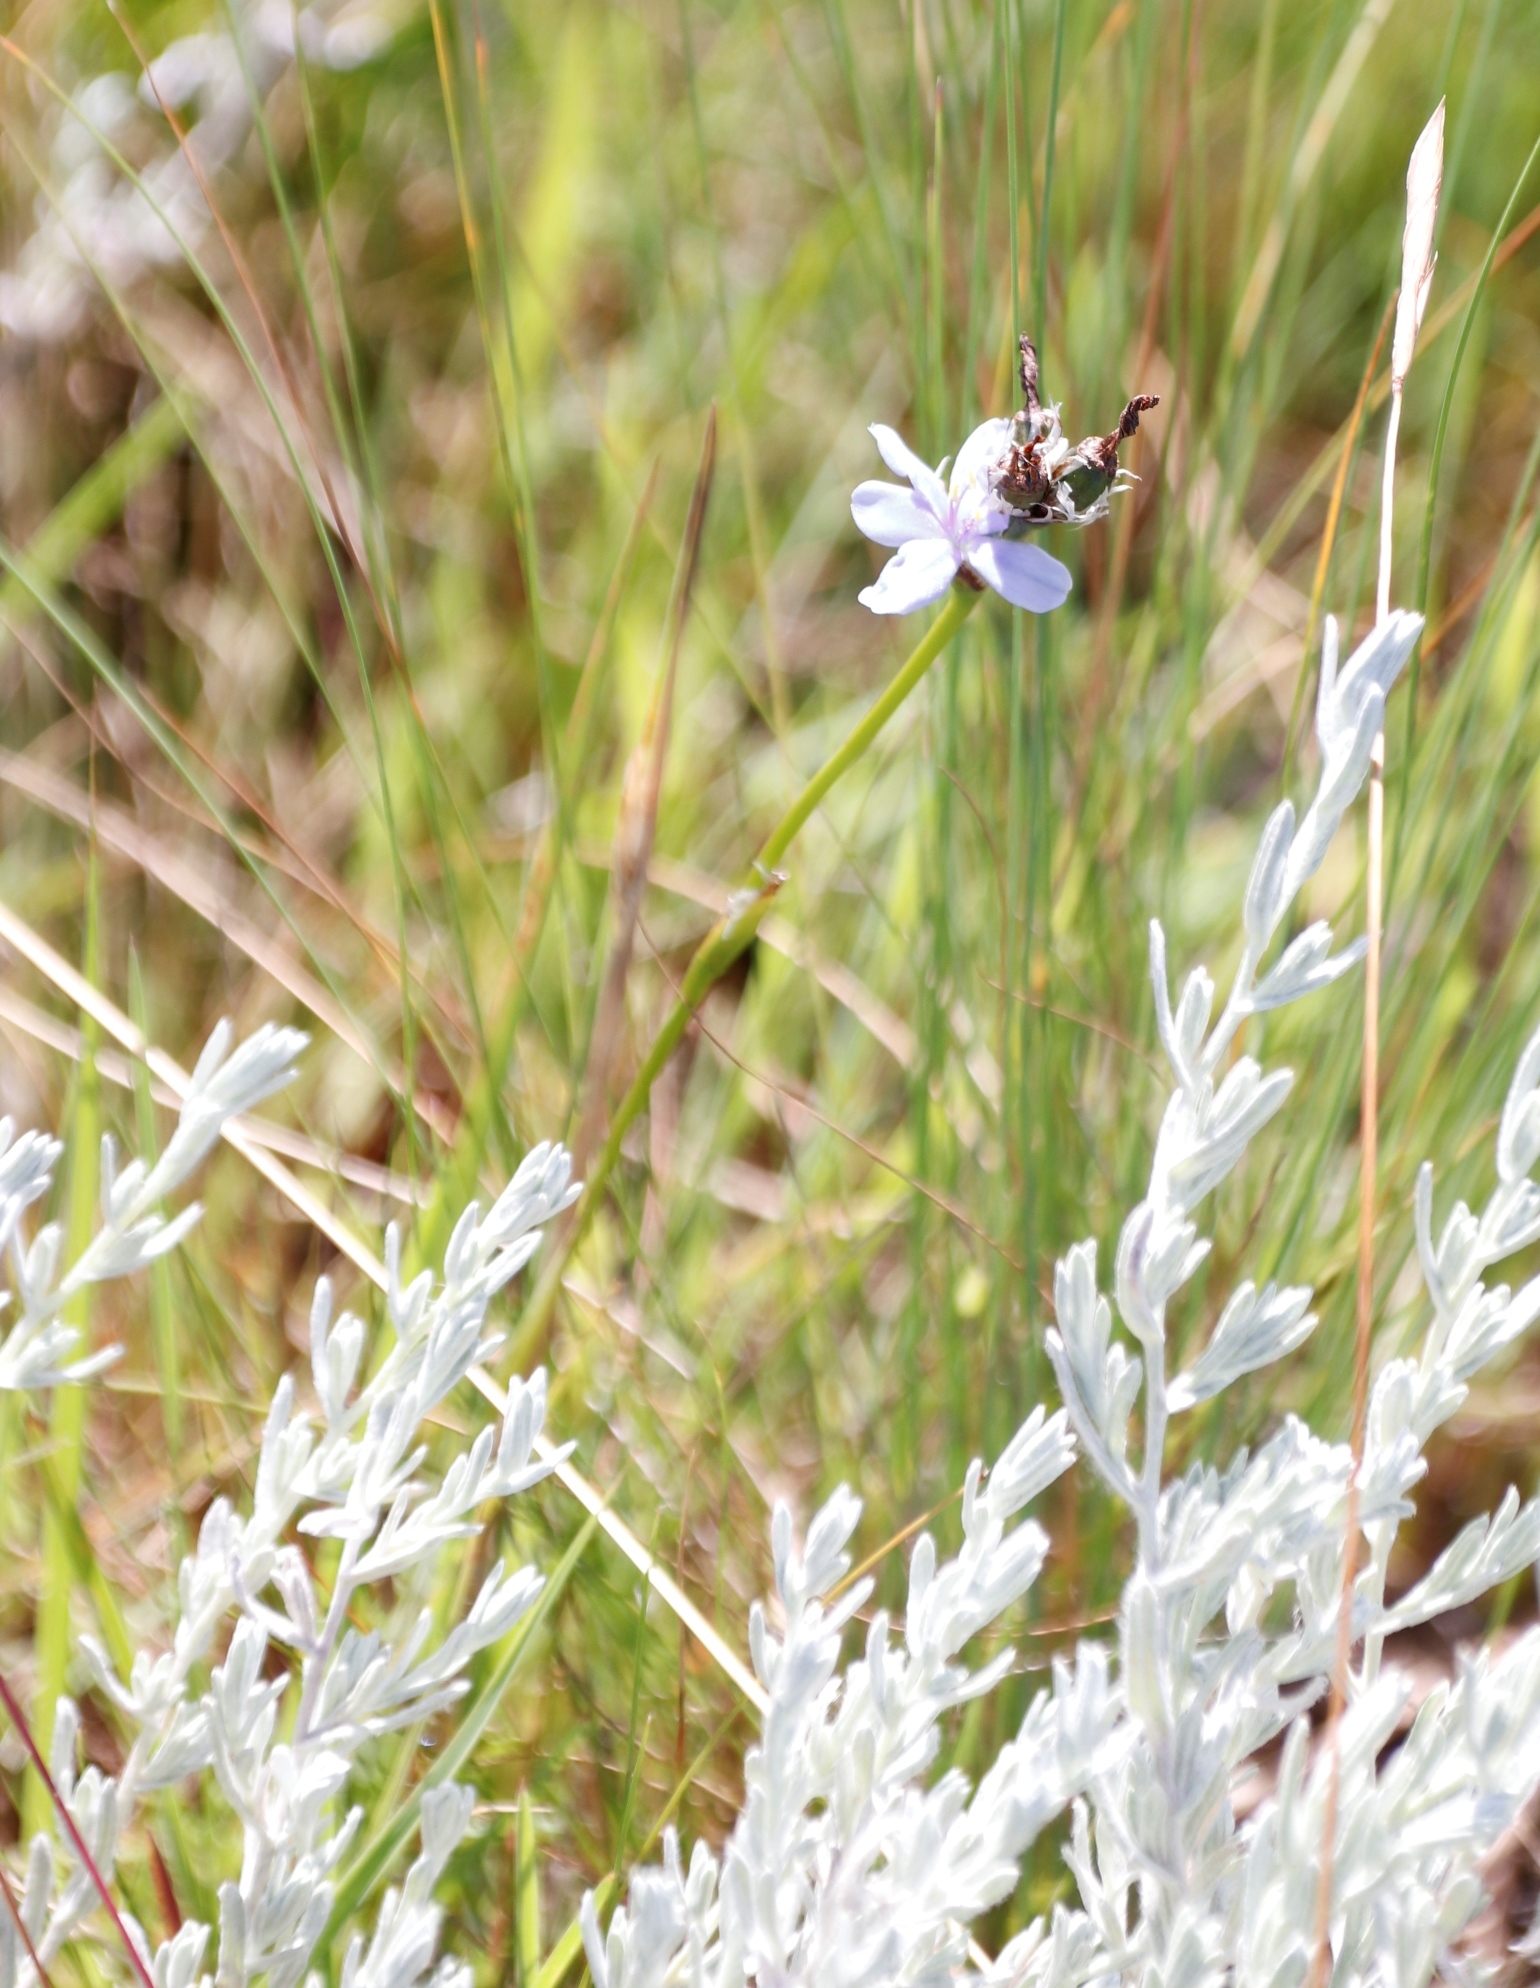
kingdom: Plantae
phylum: Tracheophyta
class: Liliopsida
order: Asparagales
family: Iridaceae
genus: Aristea
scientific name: Aristea abyssinica
